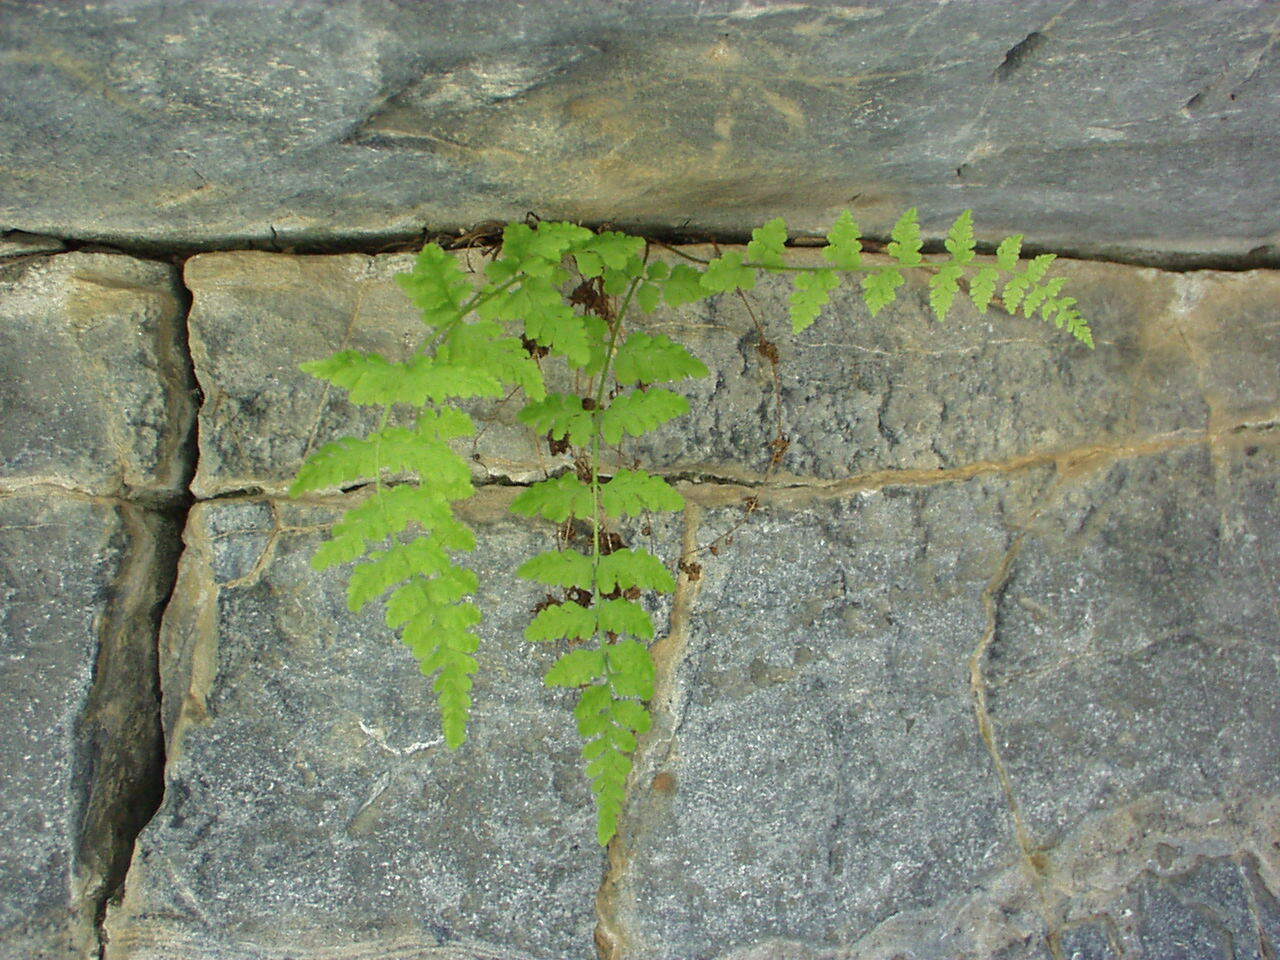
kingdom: Plantae
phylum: Tracheophyta
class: Polypodiopsida
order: Polypodiales
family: Cystopteridaceae
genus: Cystopteris
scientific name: Cystopteris fragilis
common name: Brittle bladder fern
